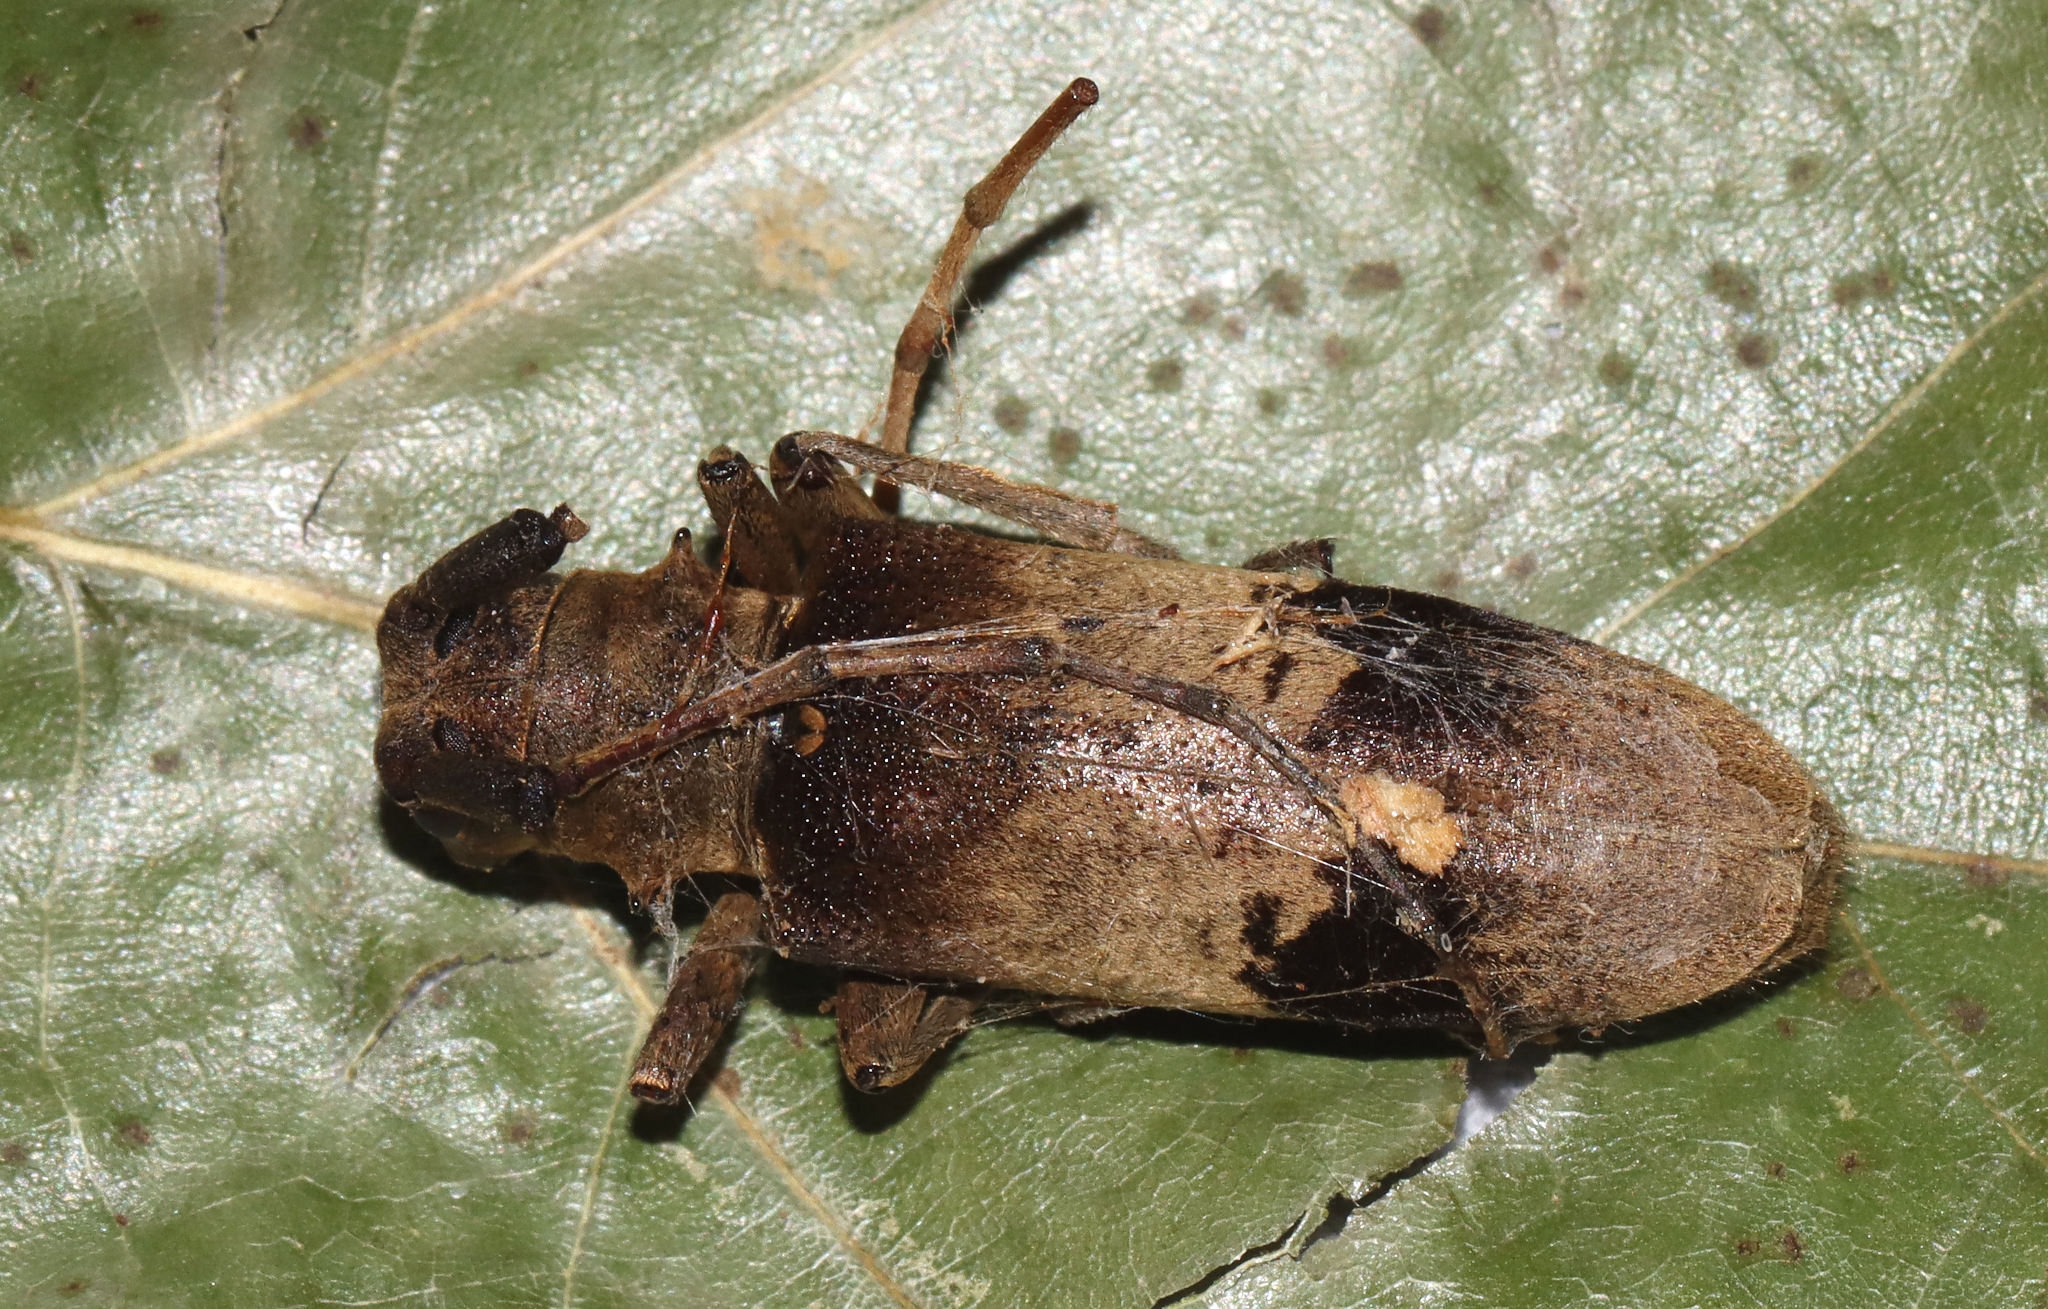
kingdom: Animalia
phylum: Arthropoda
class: Insecta
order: Coleoptera
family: Cerambycidae
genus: Goes
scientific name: Goes pulcher
